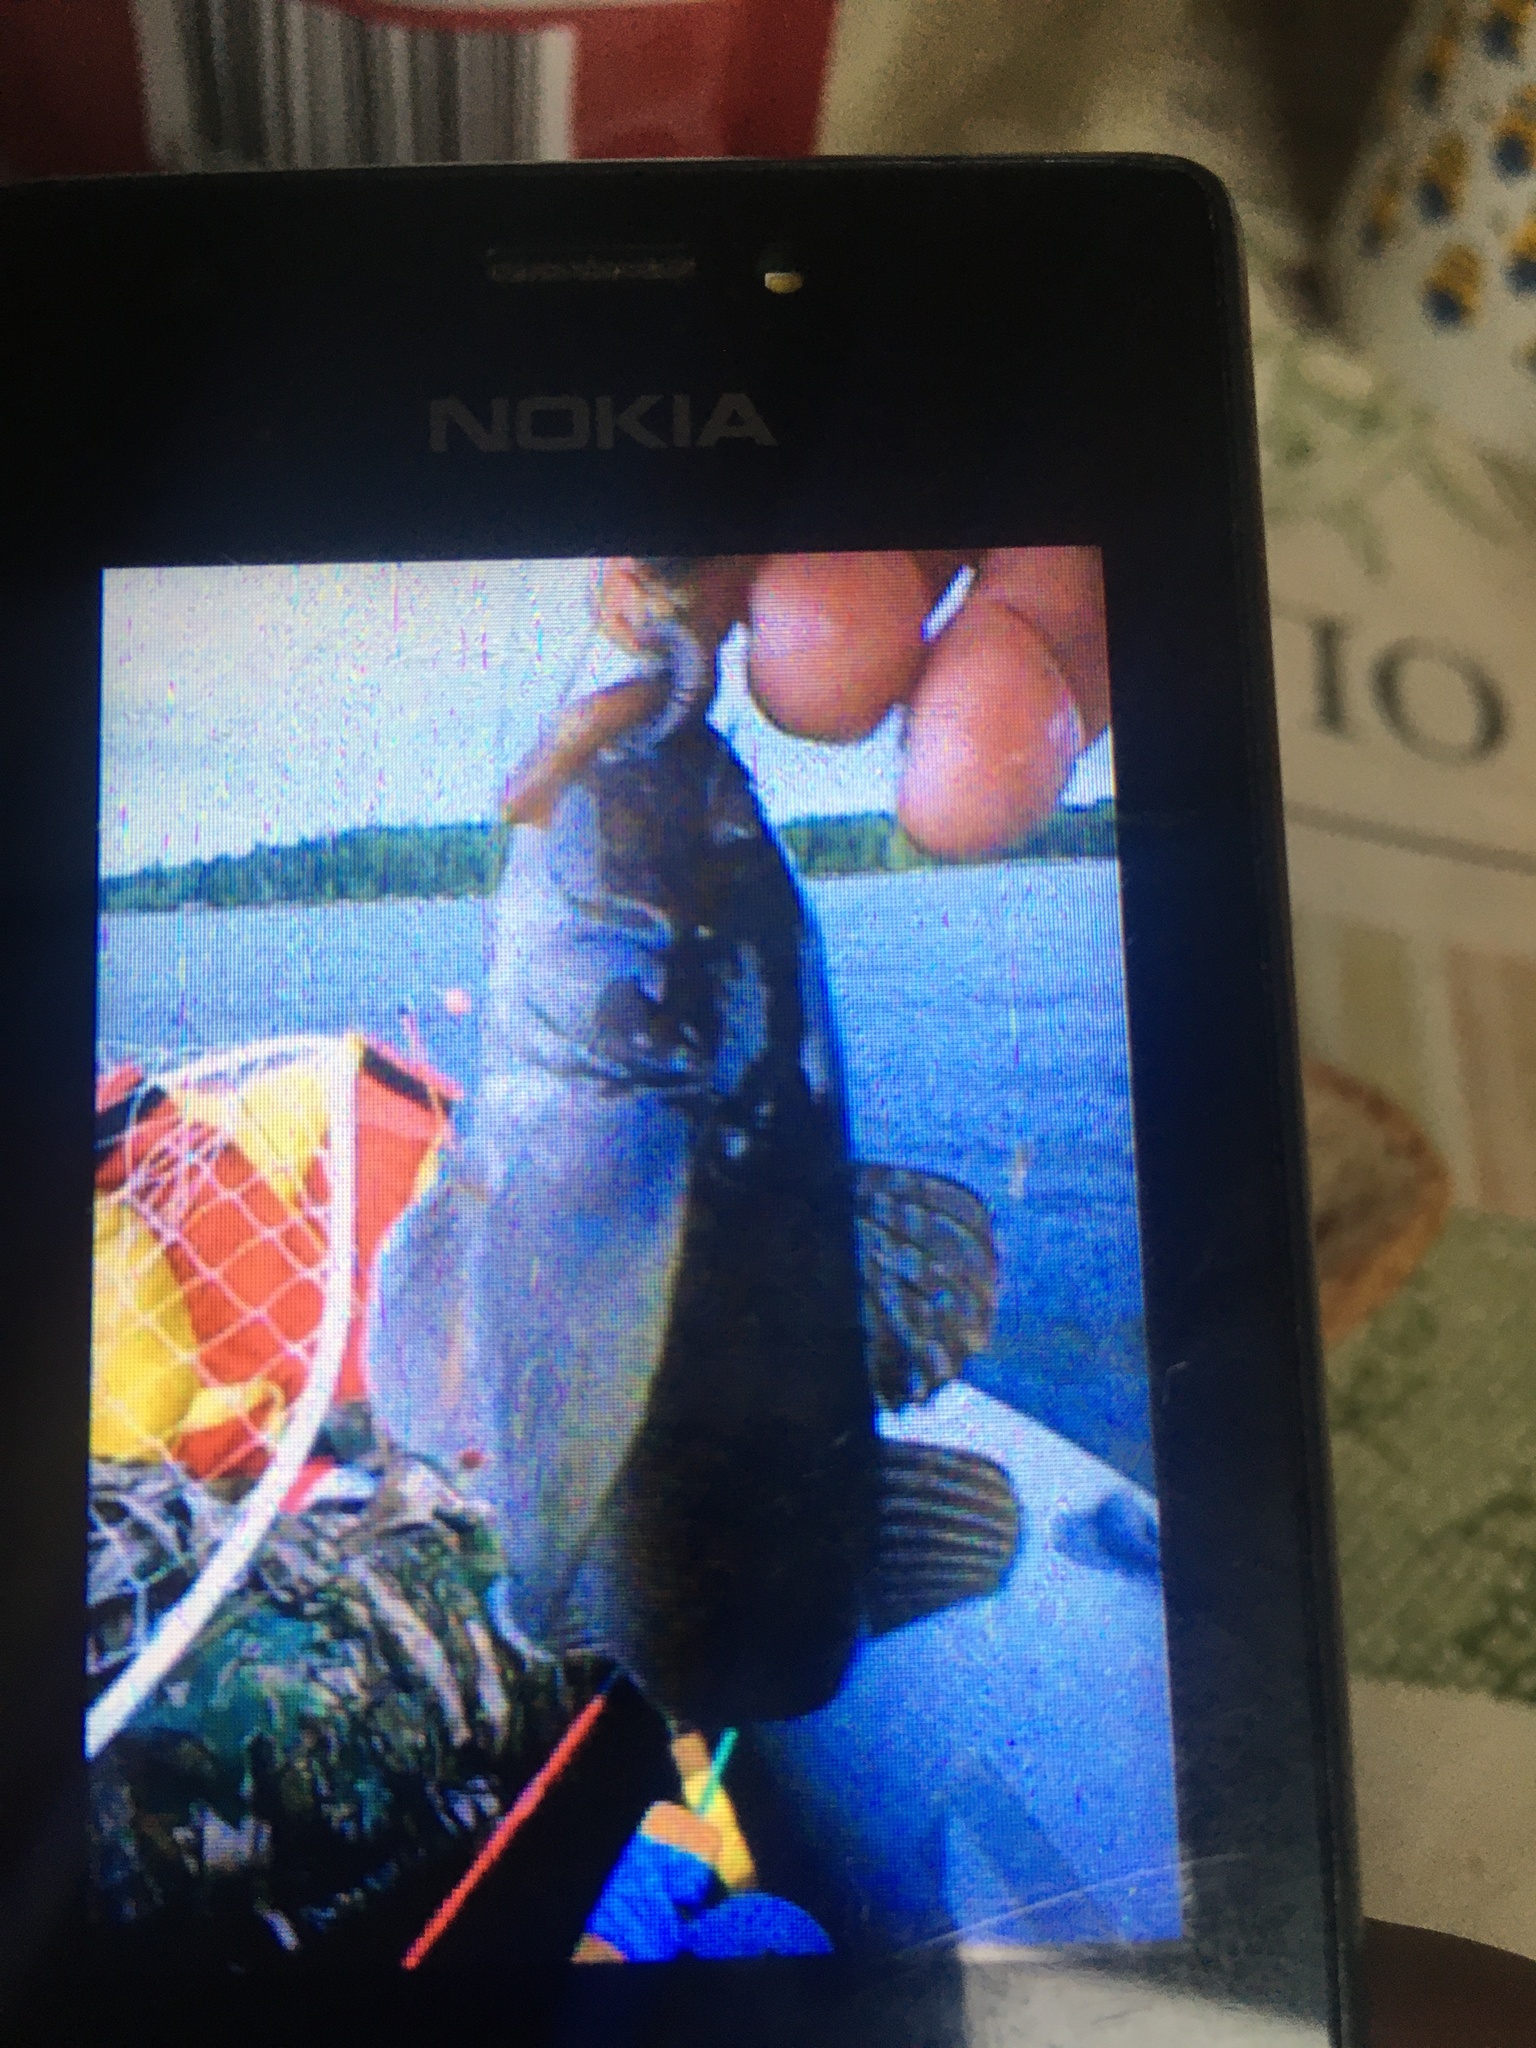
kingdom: Animalia
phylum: Chordata
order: Perciformes
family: Gobiidae
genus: Neogobius
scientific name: Neogobius melanostomus
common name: Round goby
